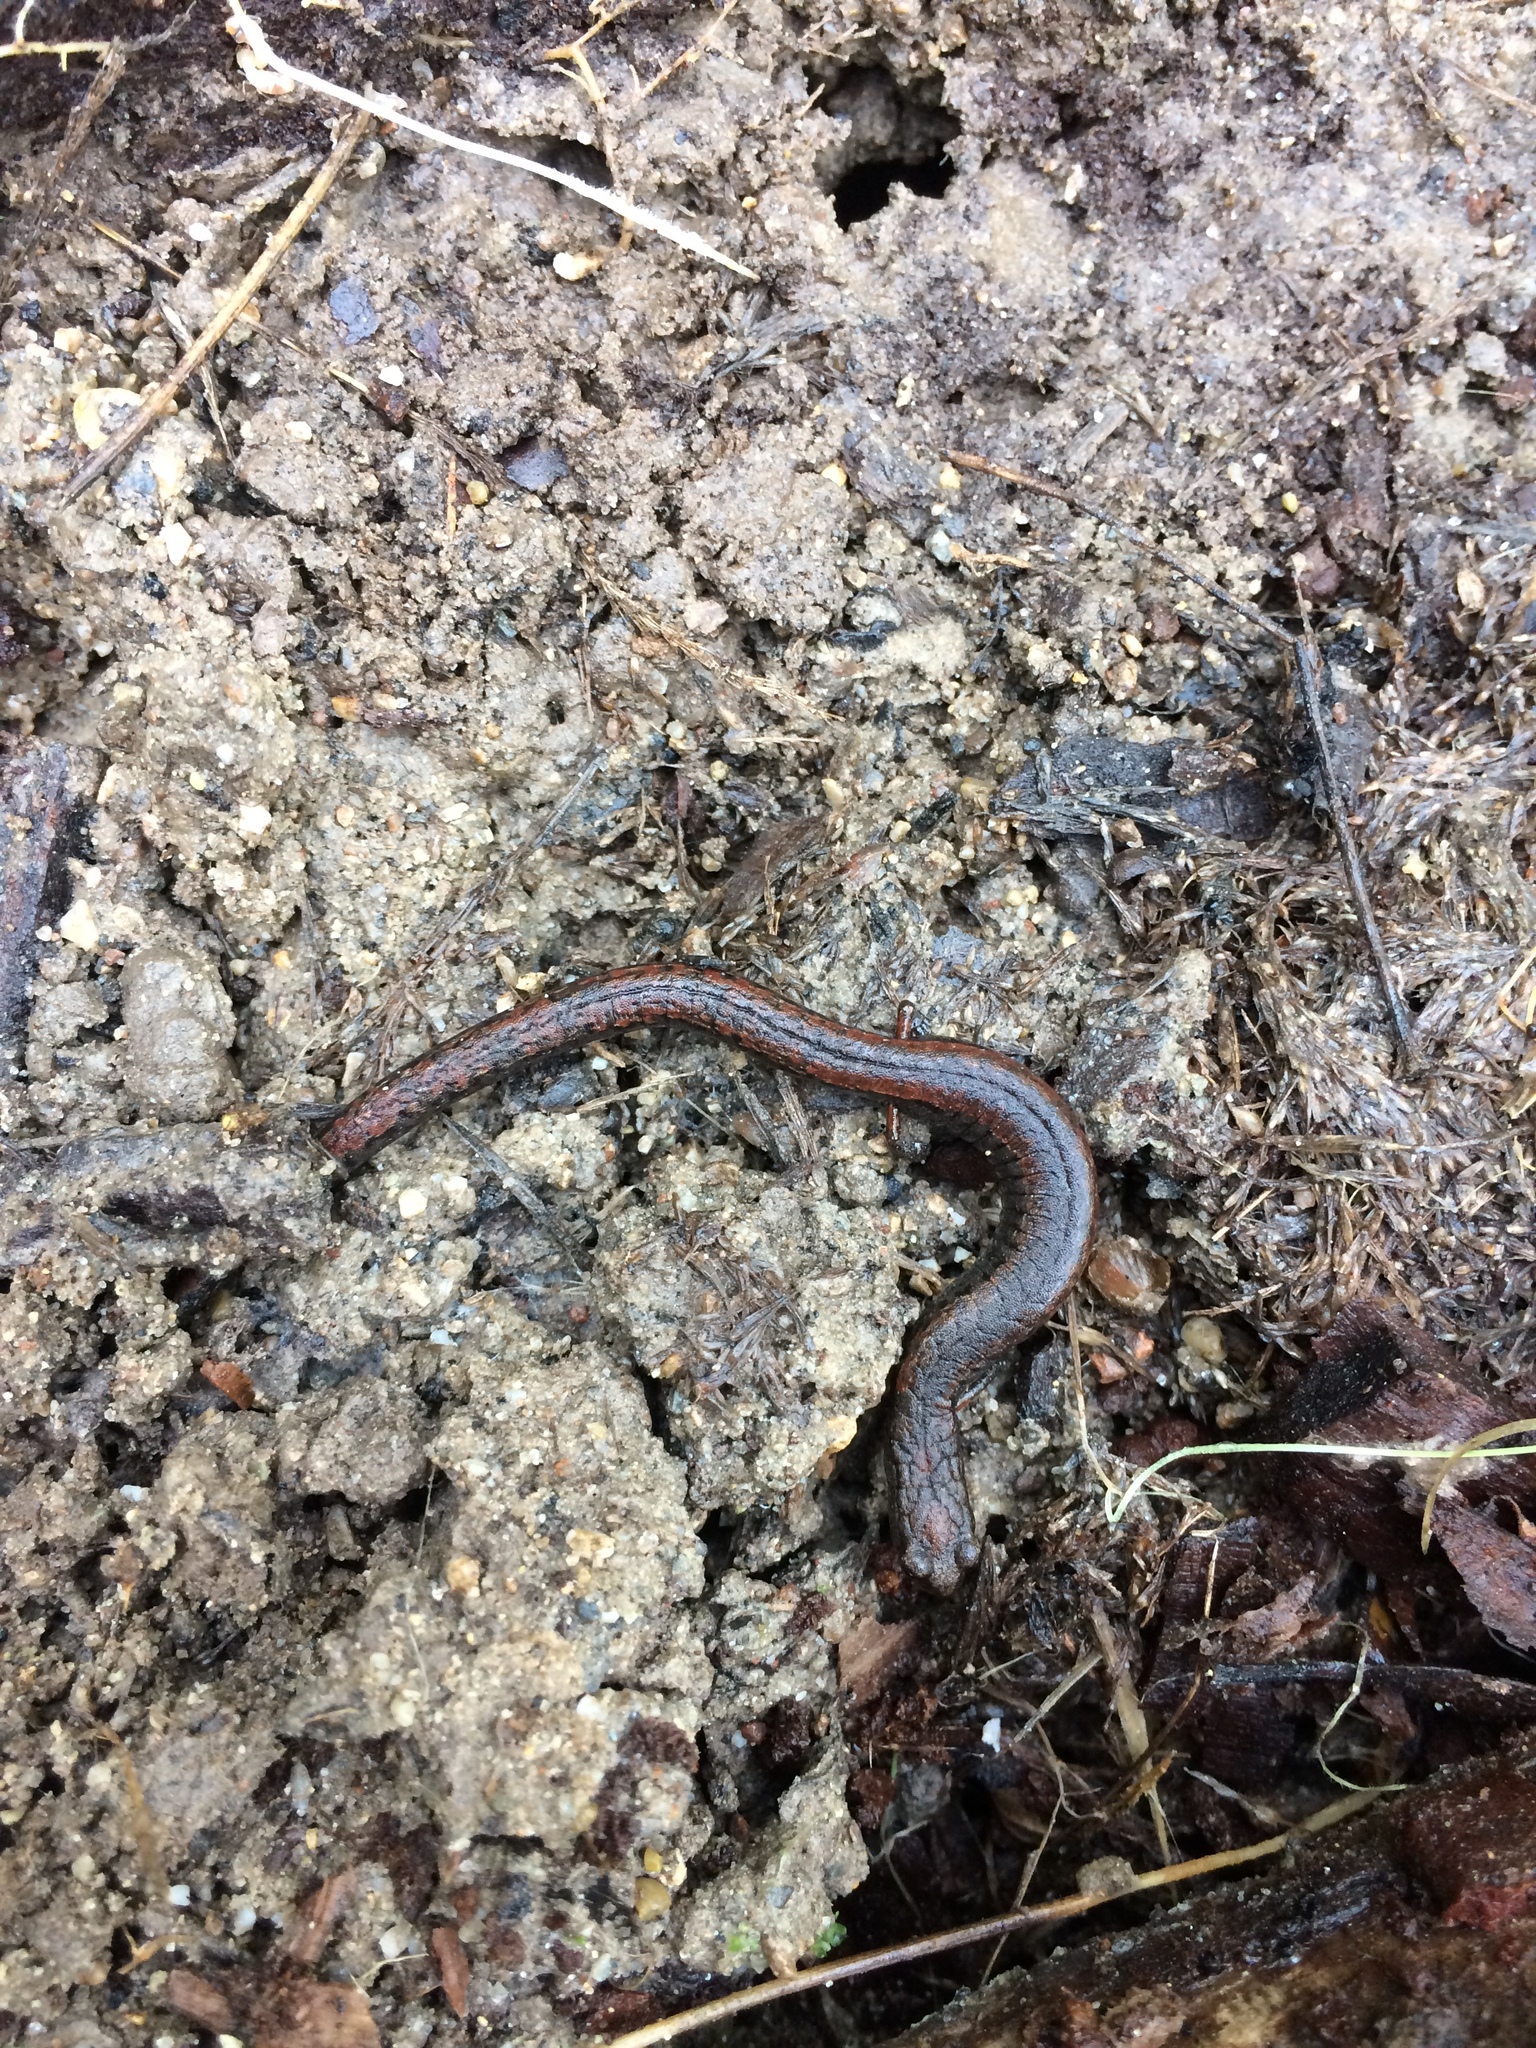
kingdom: Animalia
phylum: Chordata
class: Amphibia
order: Caudata
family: Plethodontidae
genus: Batrachoseps
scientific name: Batrachoseps attenuatus
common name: California slender salamander
